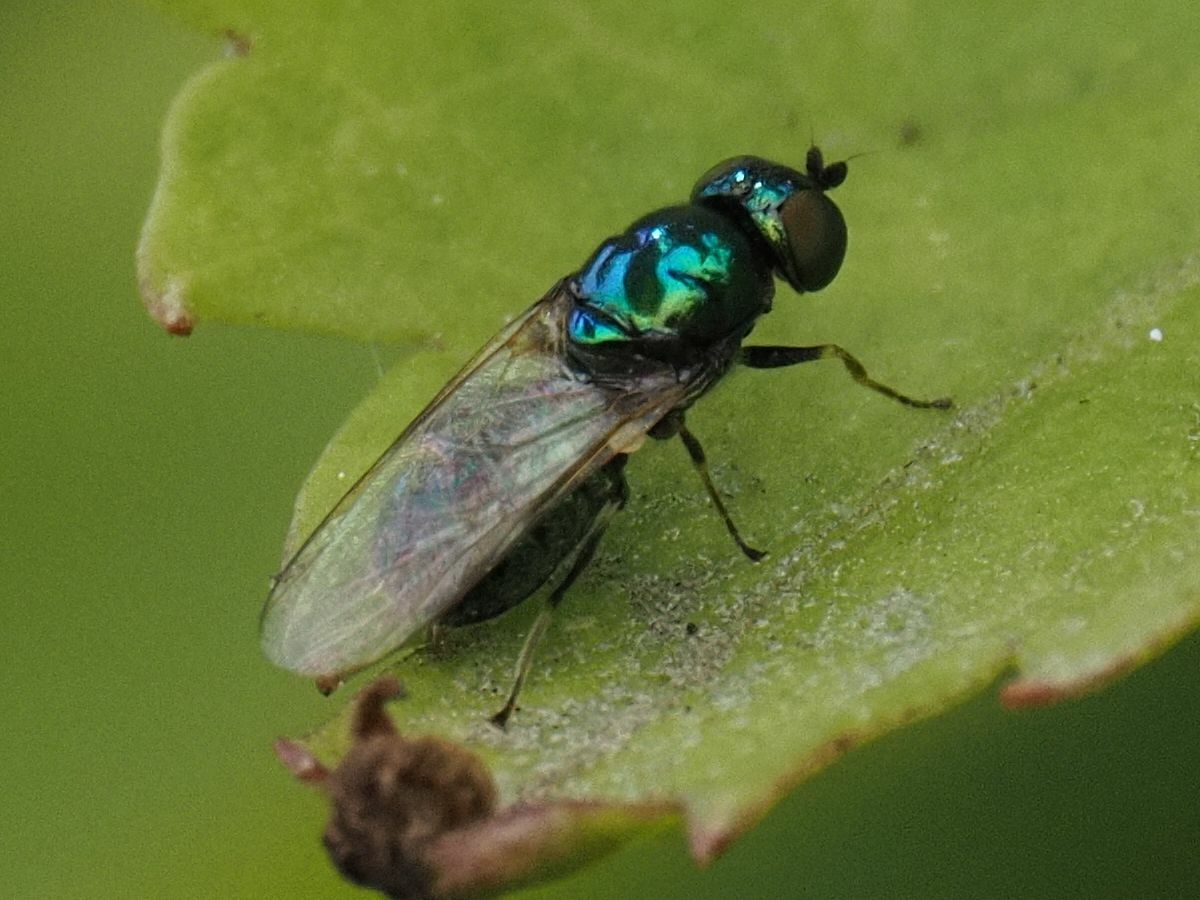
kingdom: Animalia
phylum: Arthropoda
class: Insecta
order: Diptera
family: Stratiomyidae
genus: Microchrysa
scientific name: Microchrysa polita
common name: Black-horned gem
